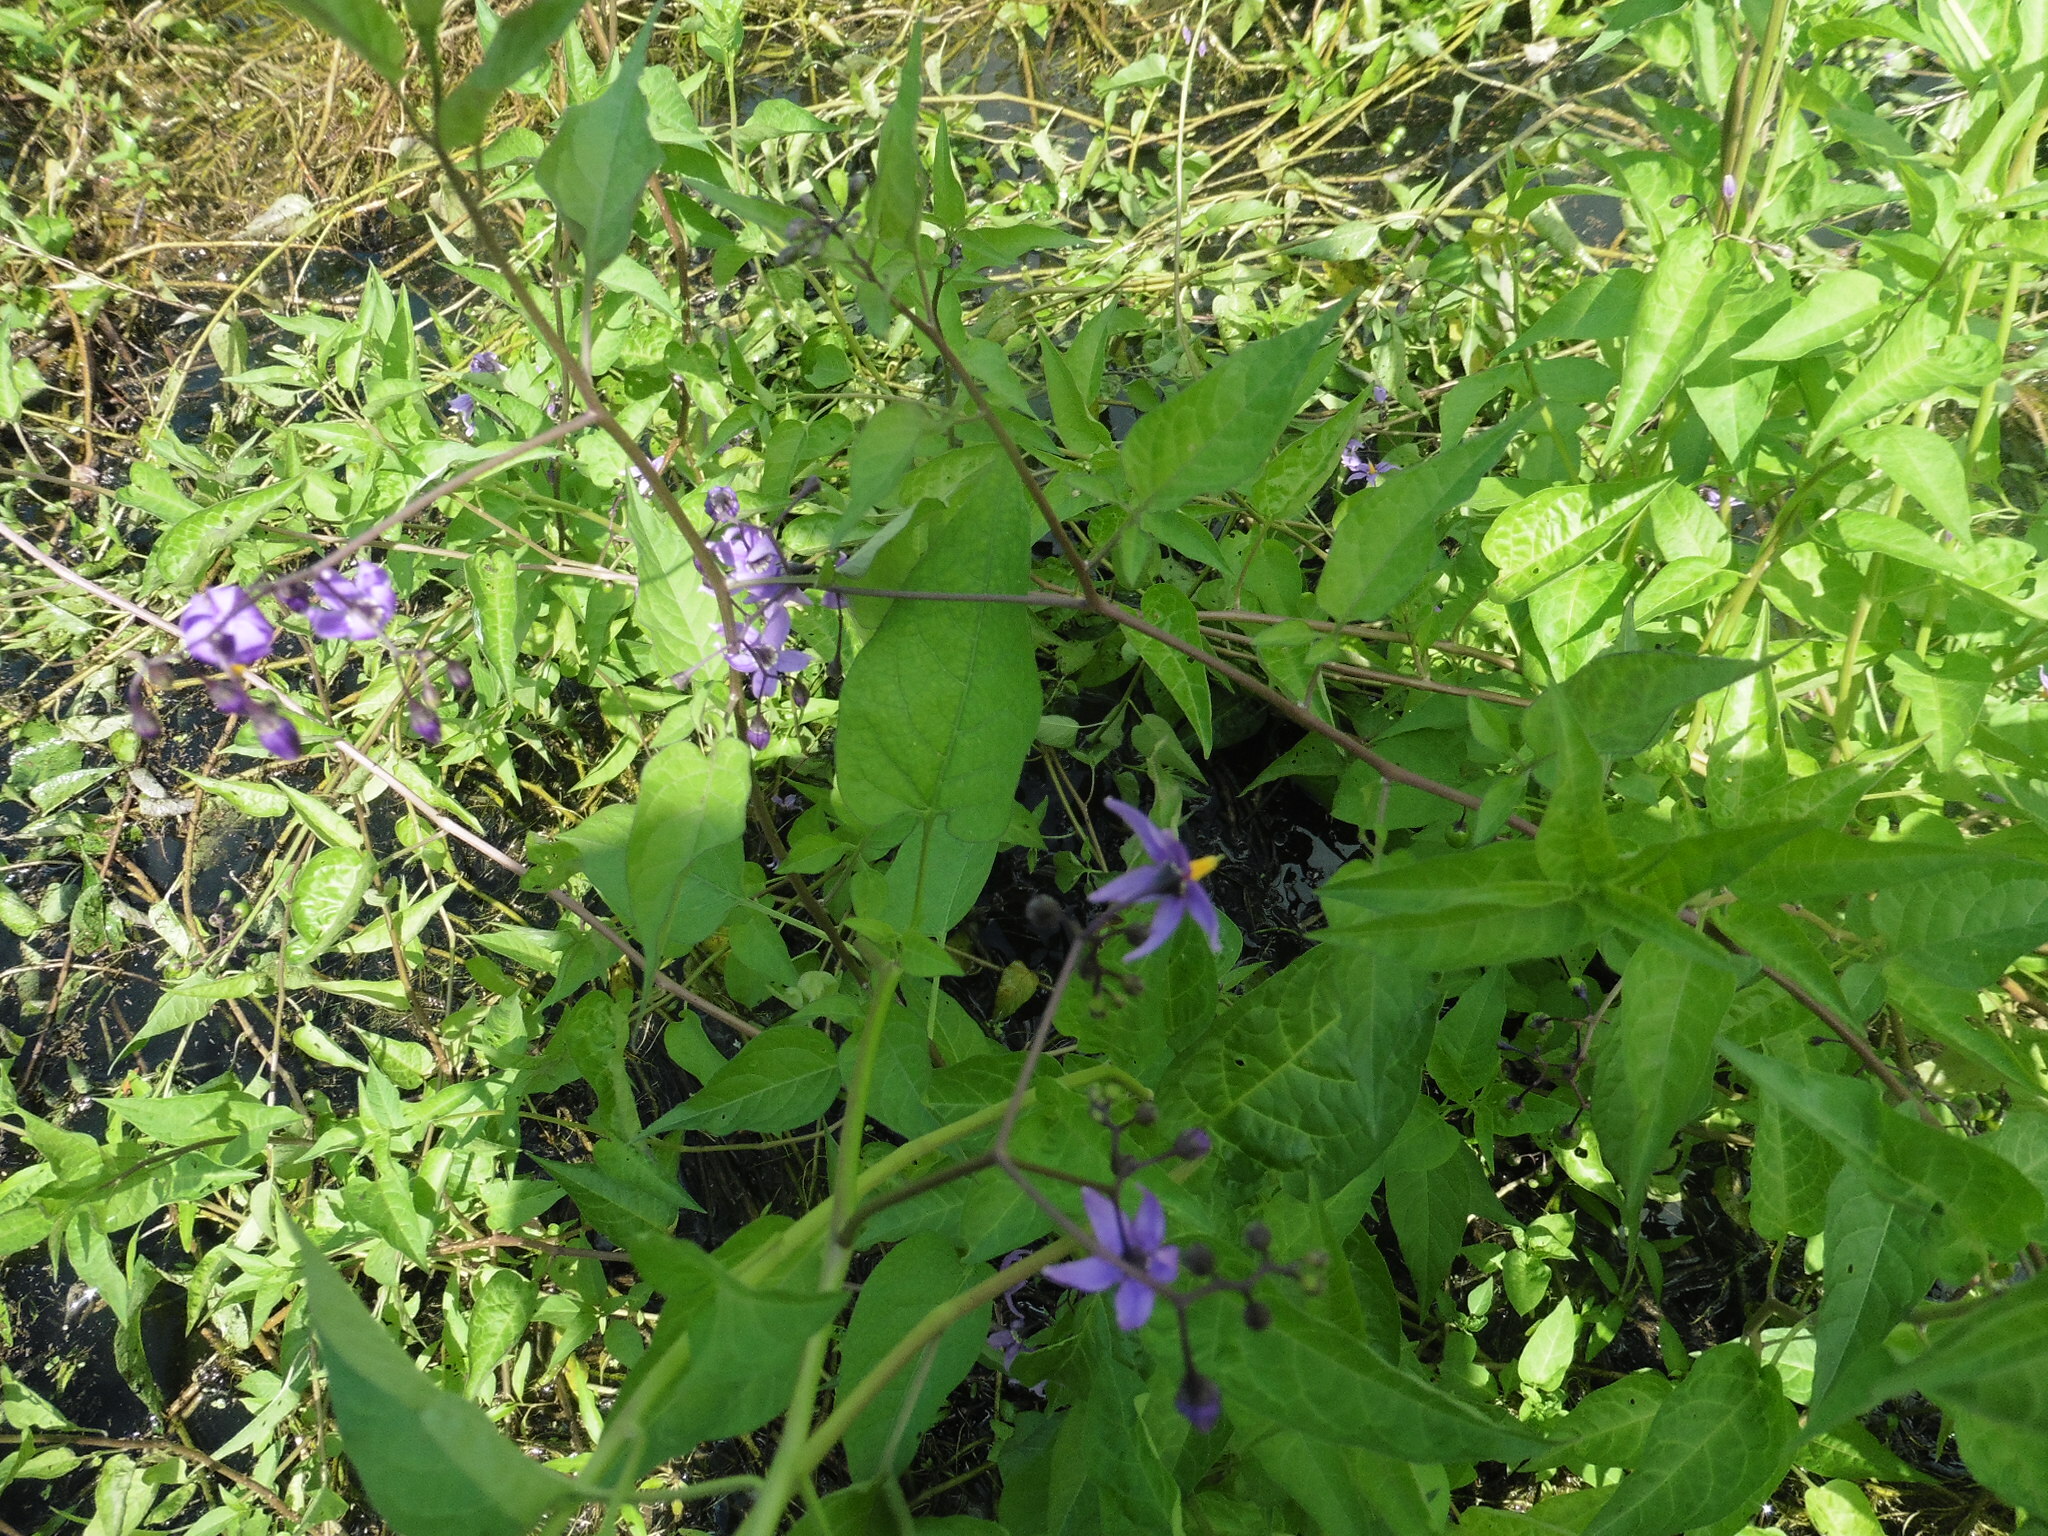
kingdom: Plantae
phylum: Tracheophyta
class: Magnoliopsida
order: Solanales
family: Solanaceae
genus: Solanum
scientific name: Solanum dulcamara
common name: Climbing nightshade
